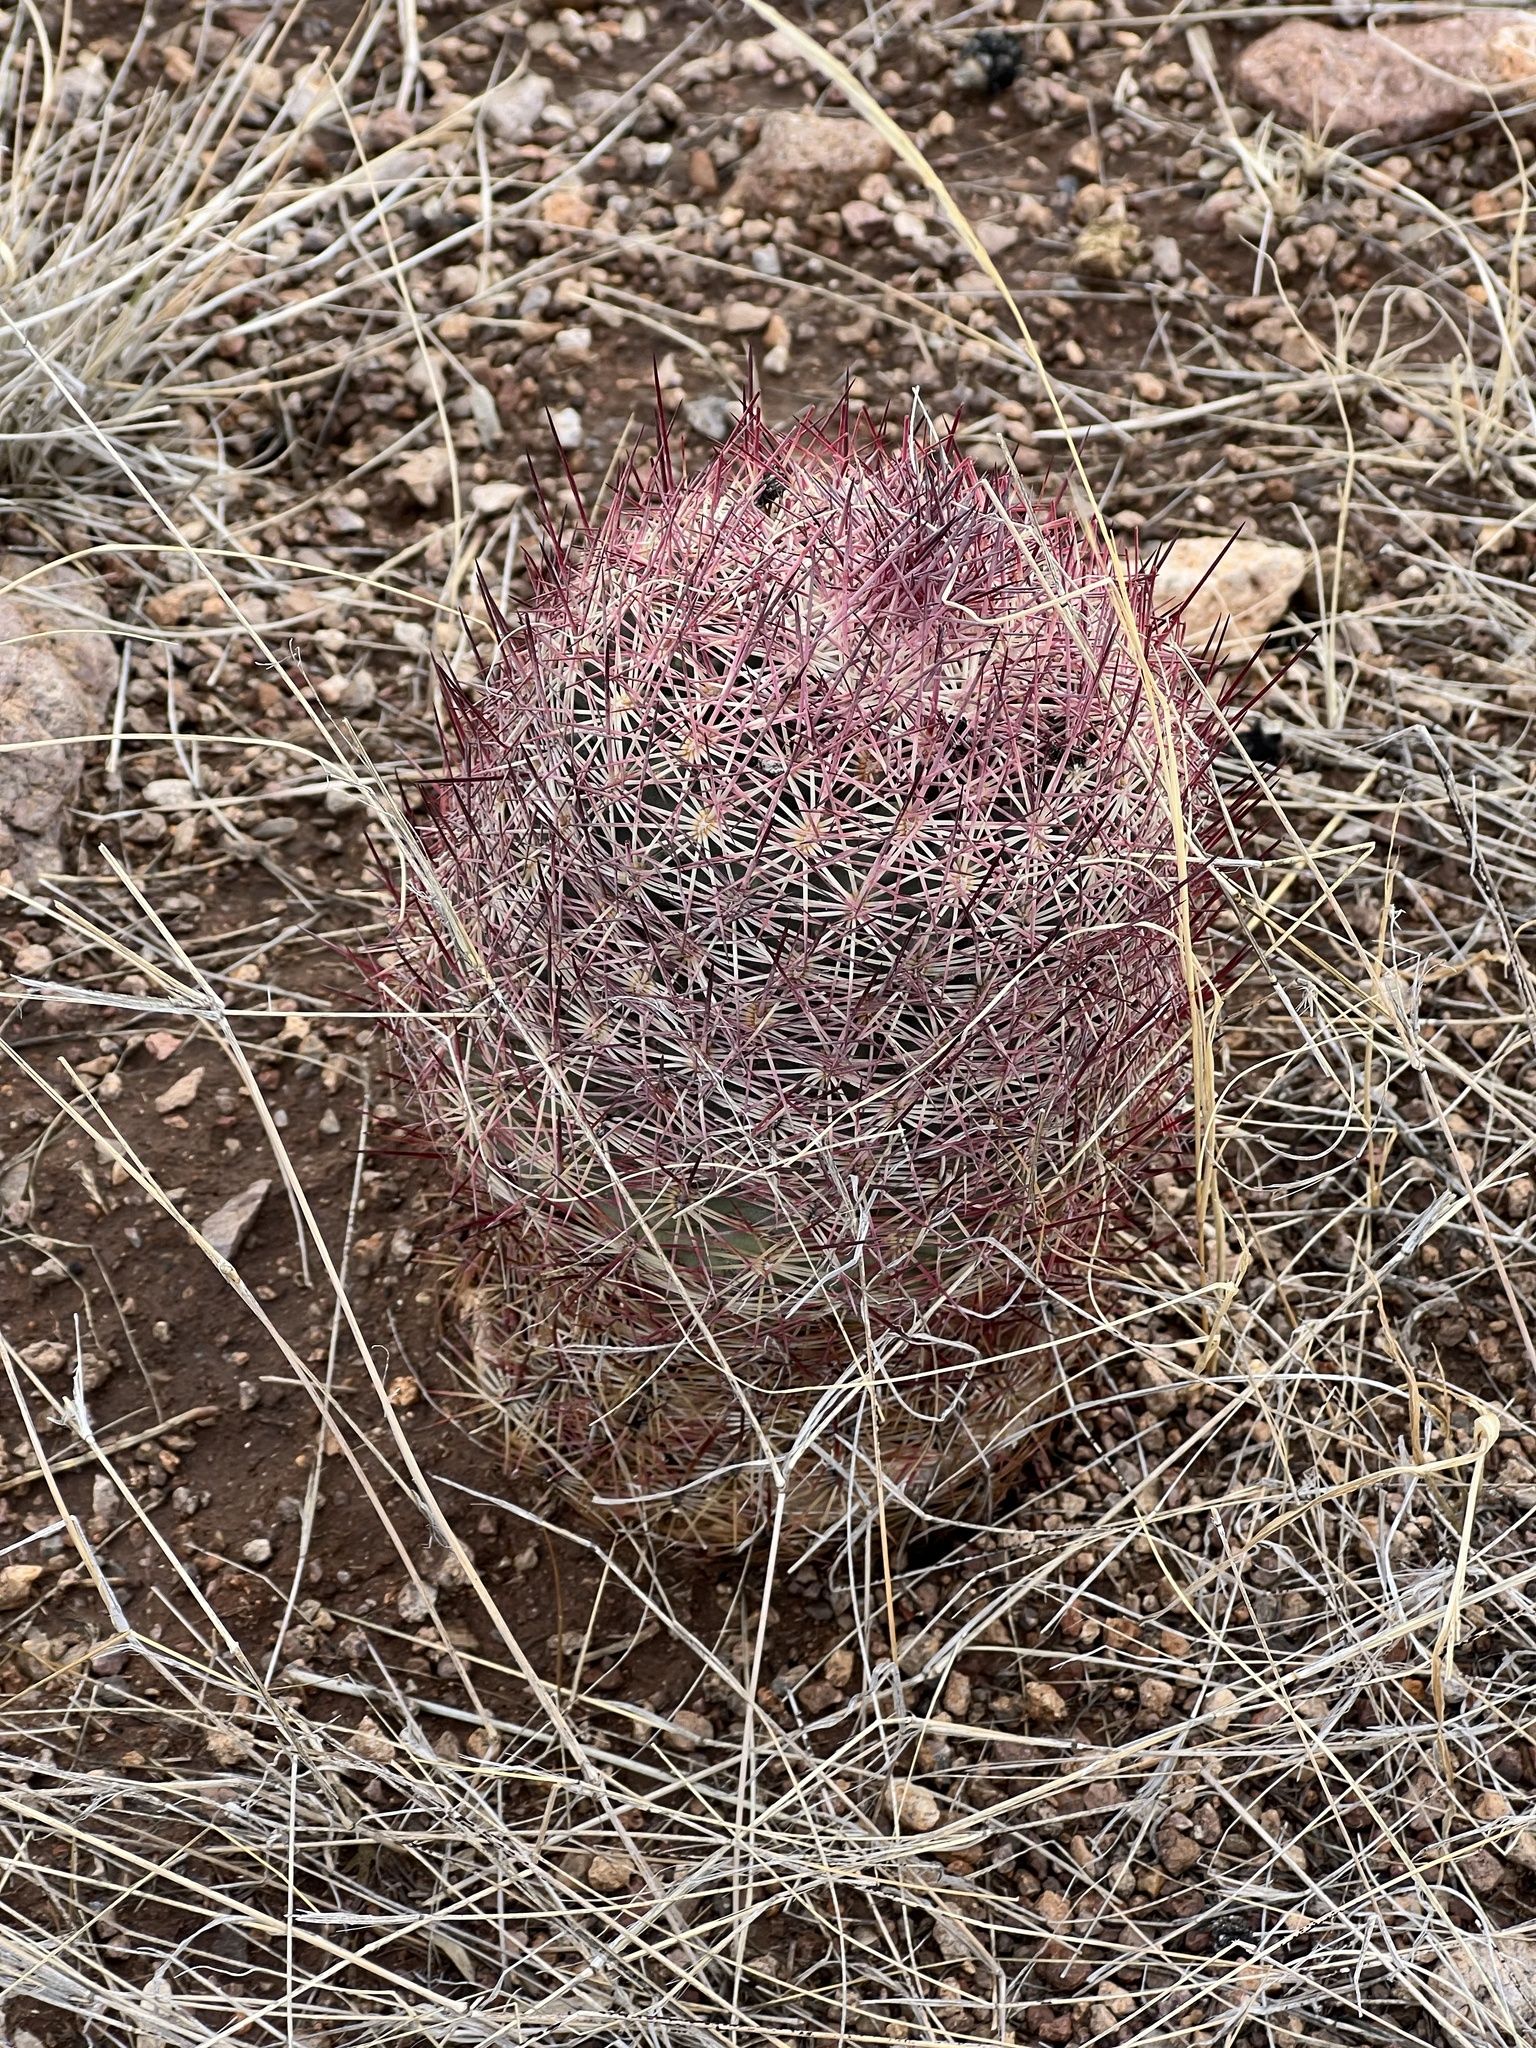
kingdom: Plantae
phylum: Tracheophyta
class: Magnoliopsida
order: Caryophyllales
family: Cactaceae
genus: Sclerocactus
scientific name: Sclerocactus johnsonii
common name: Eight-spine fishhook cactus
